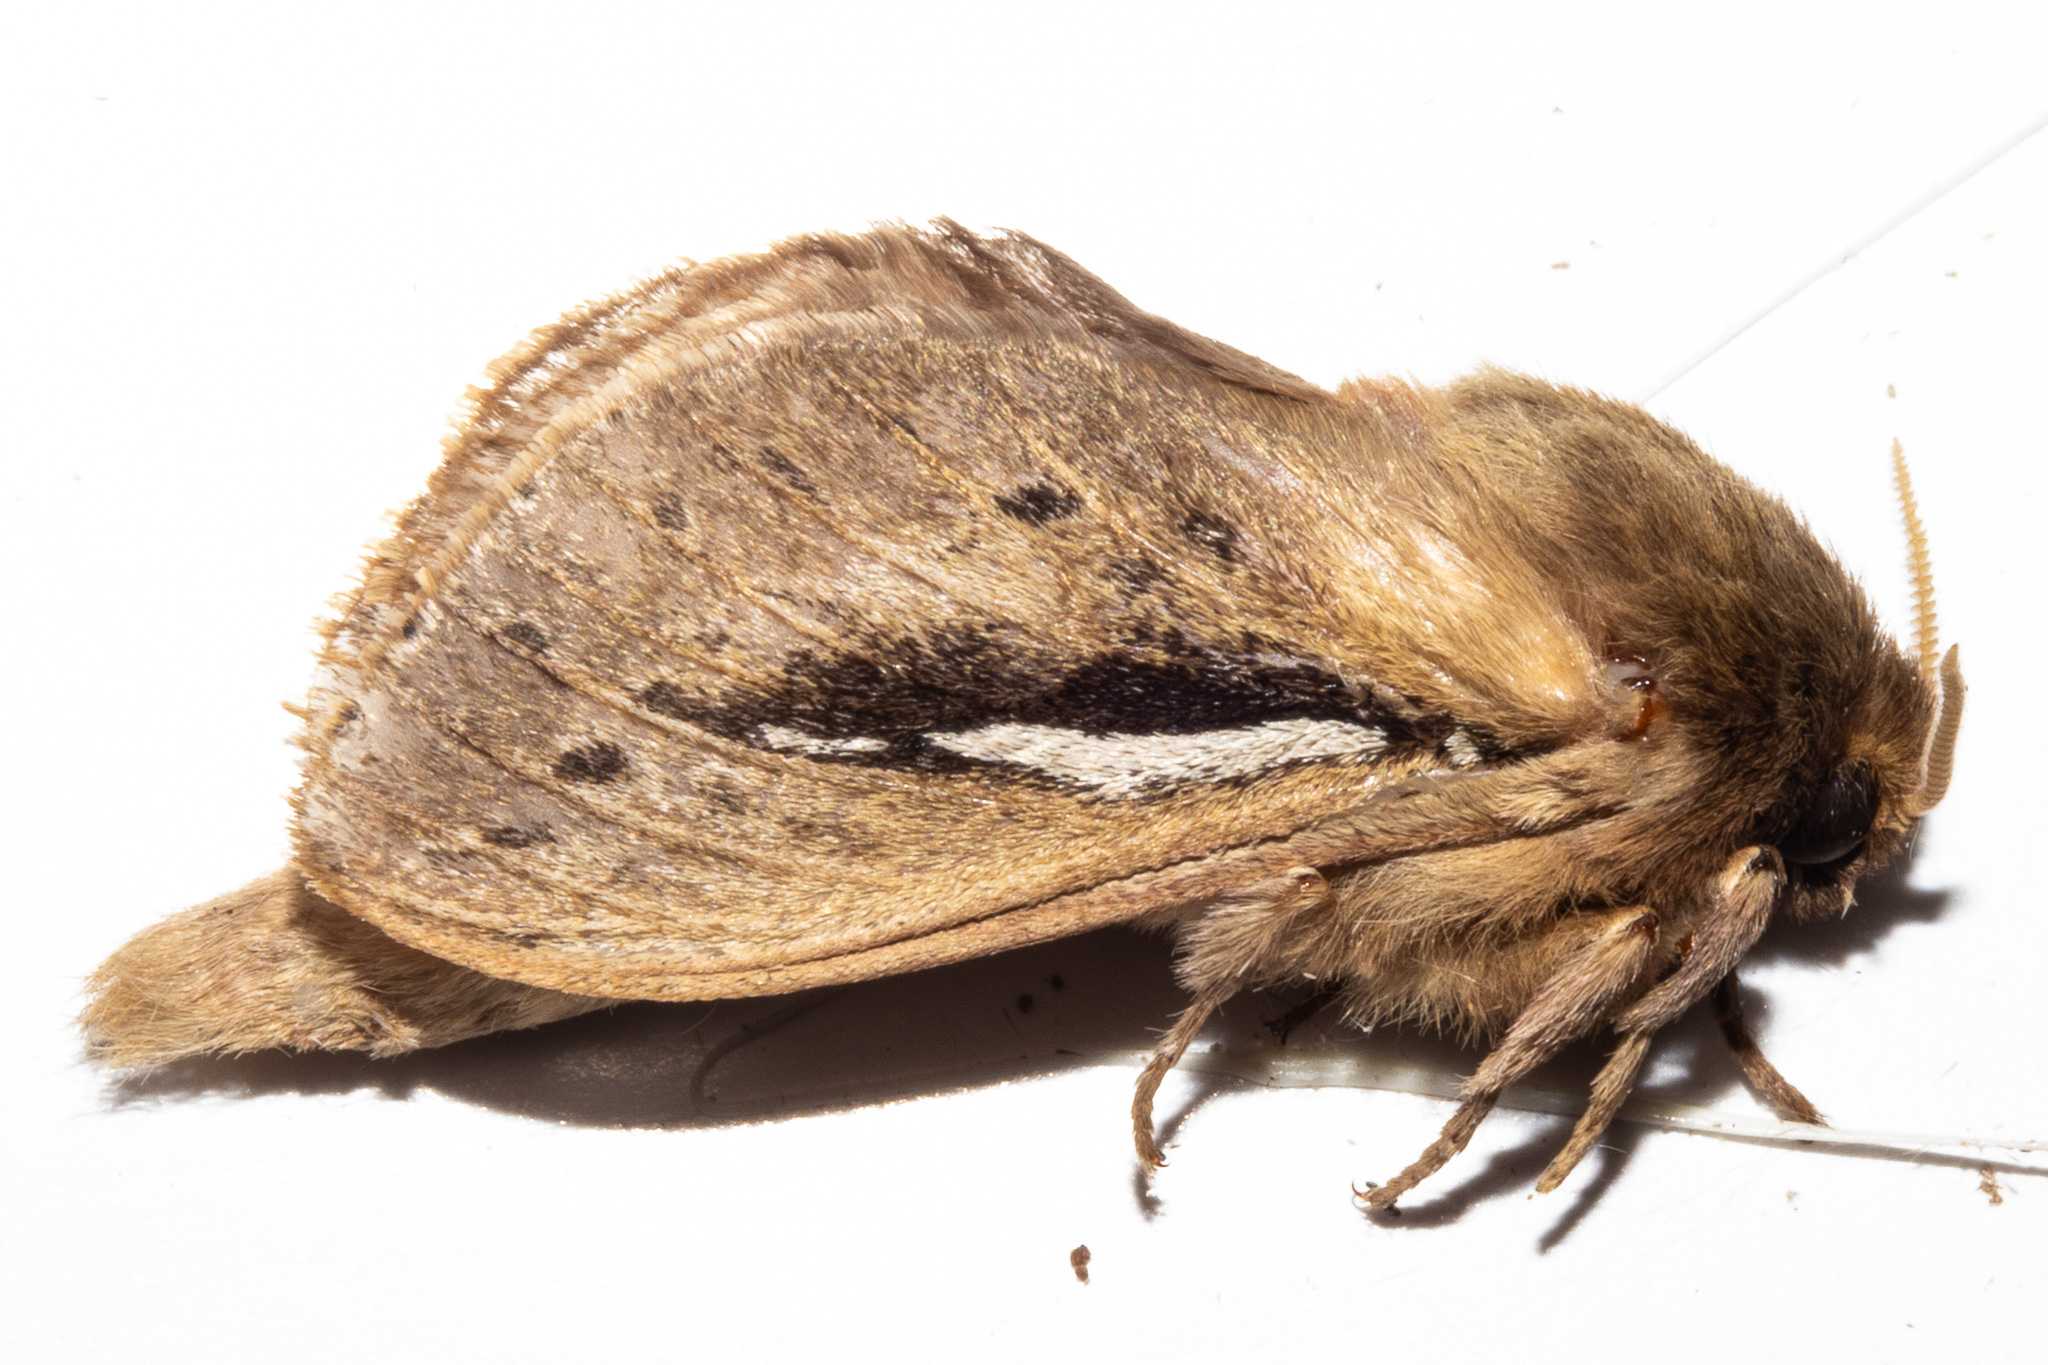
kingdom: Animalia
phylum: Arthropoda
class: Insecta
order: Lepidoptera
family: Hepialidae
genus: Wiseana
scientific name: Wiseana umbraculatus
